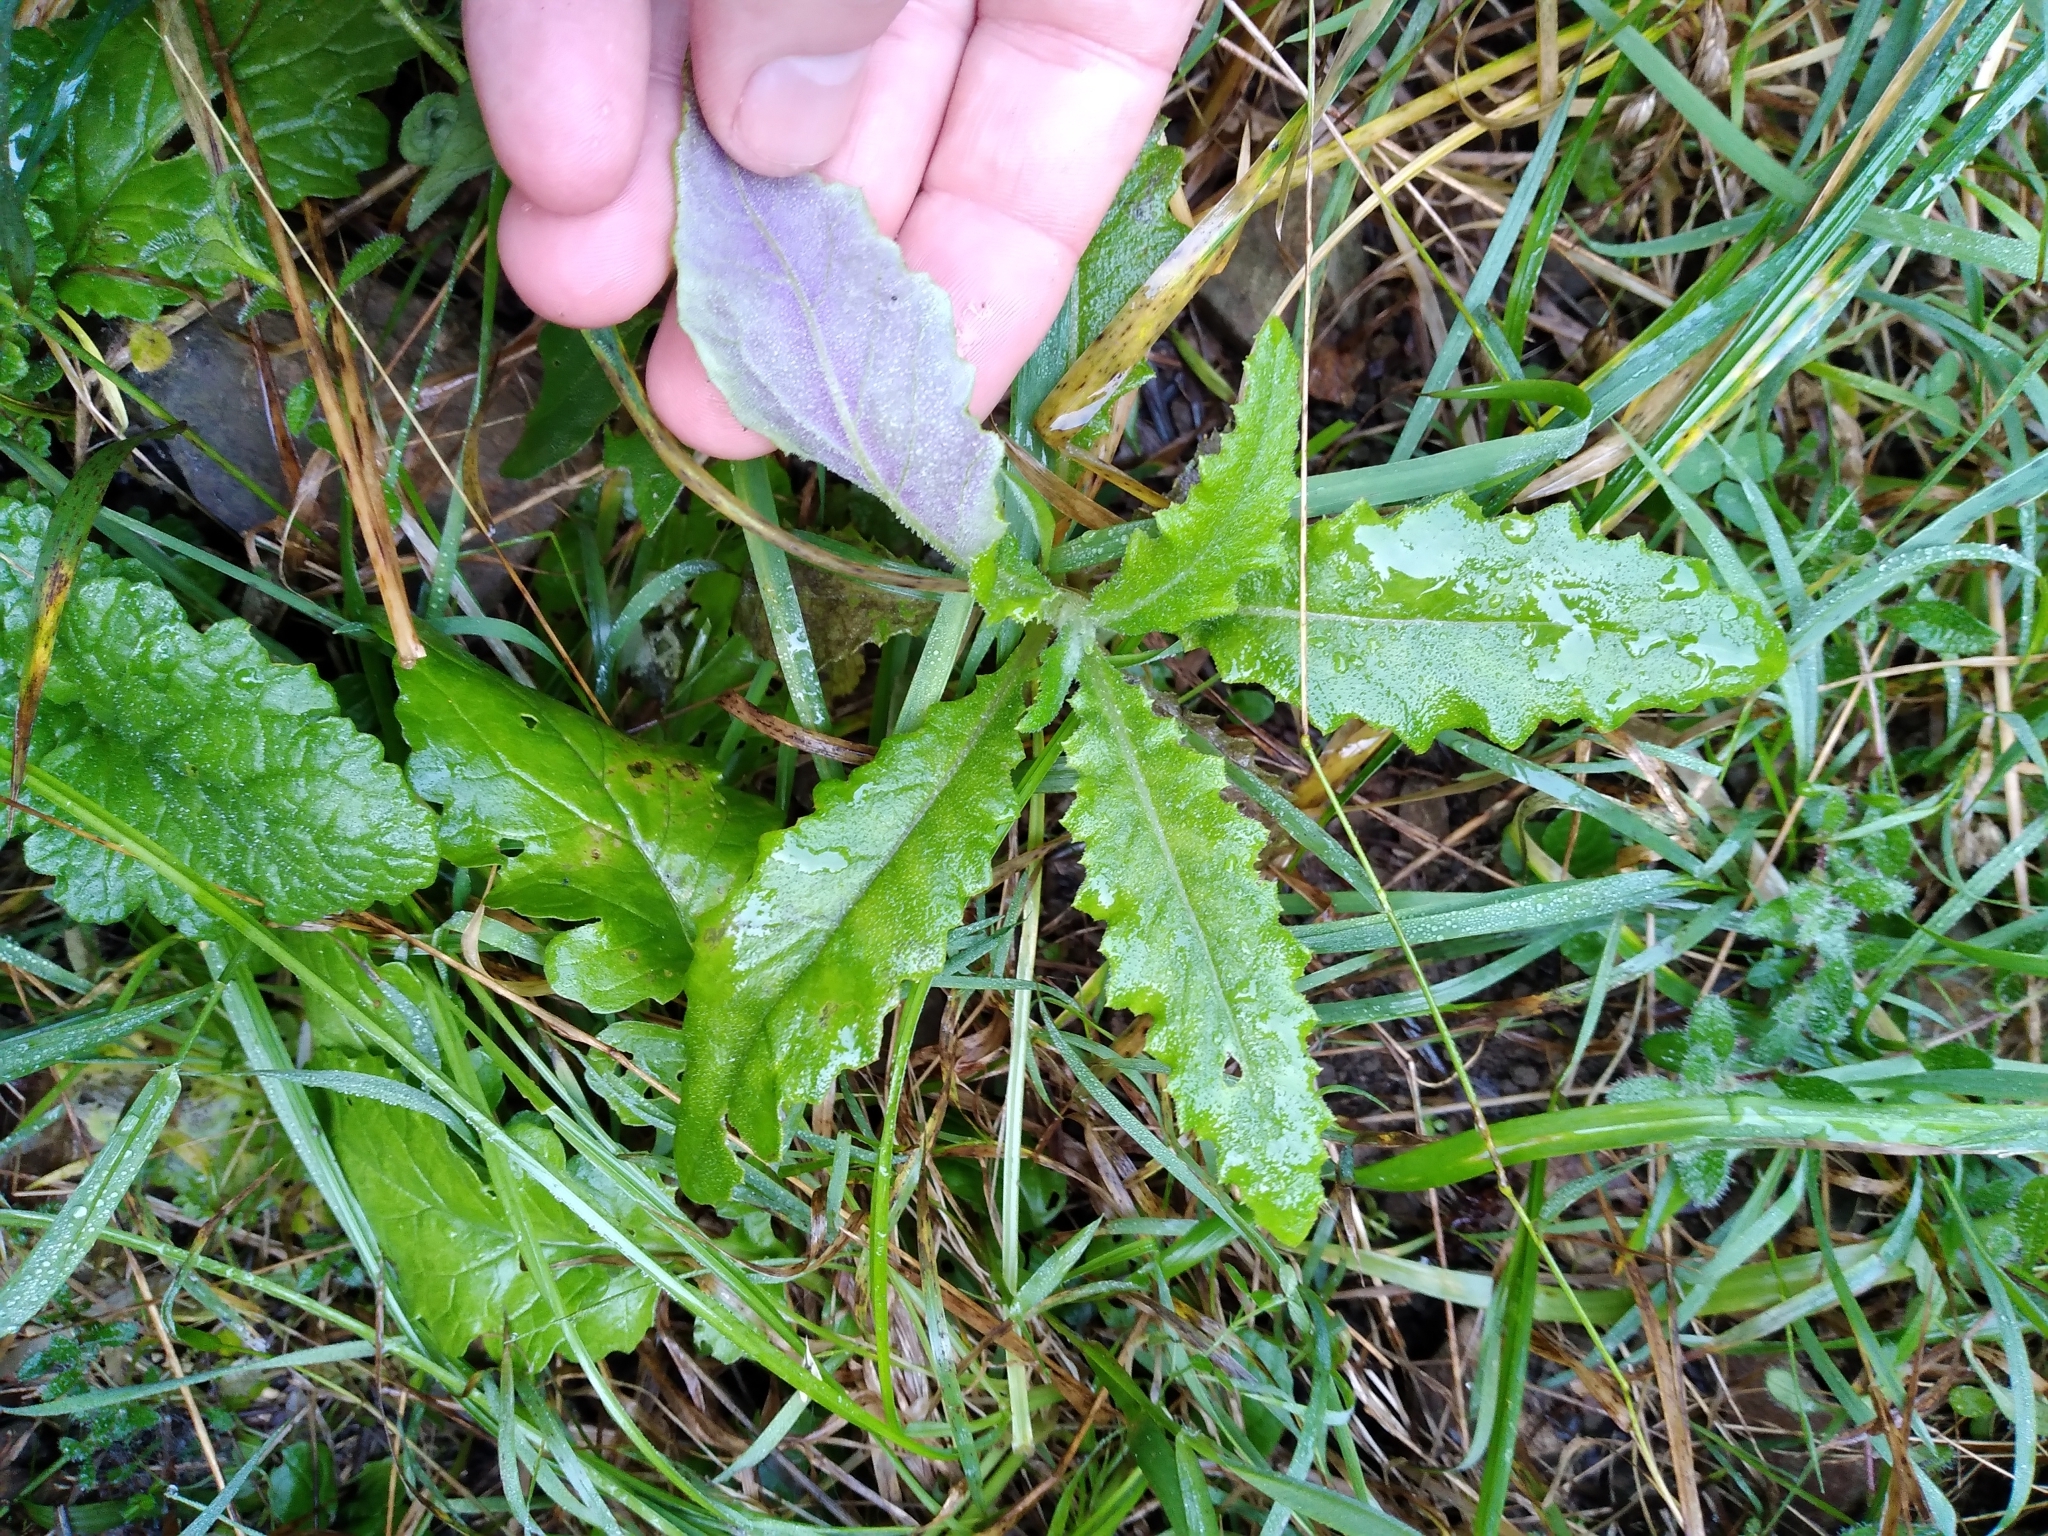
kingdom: Plantae
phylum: Tracheophyta
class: Magnoliopsida
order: Asterales
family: Asteraceae
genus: Senecio
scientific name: Senecio minimus
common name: Toothed fireweed
